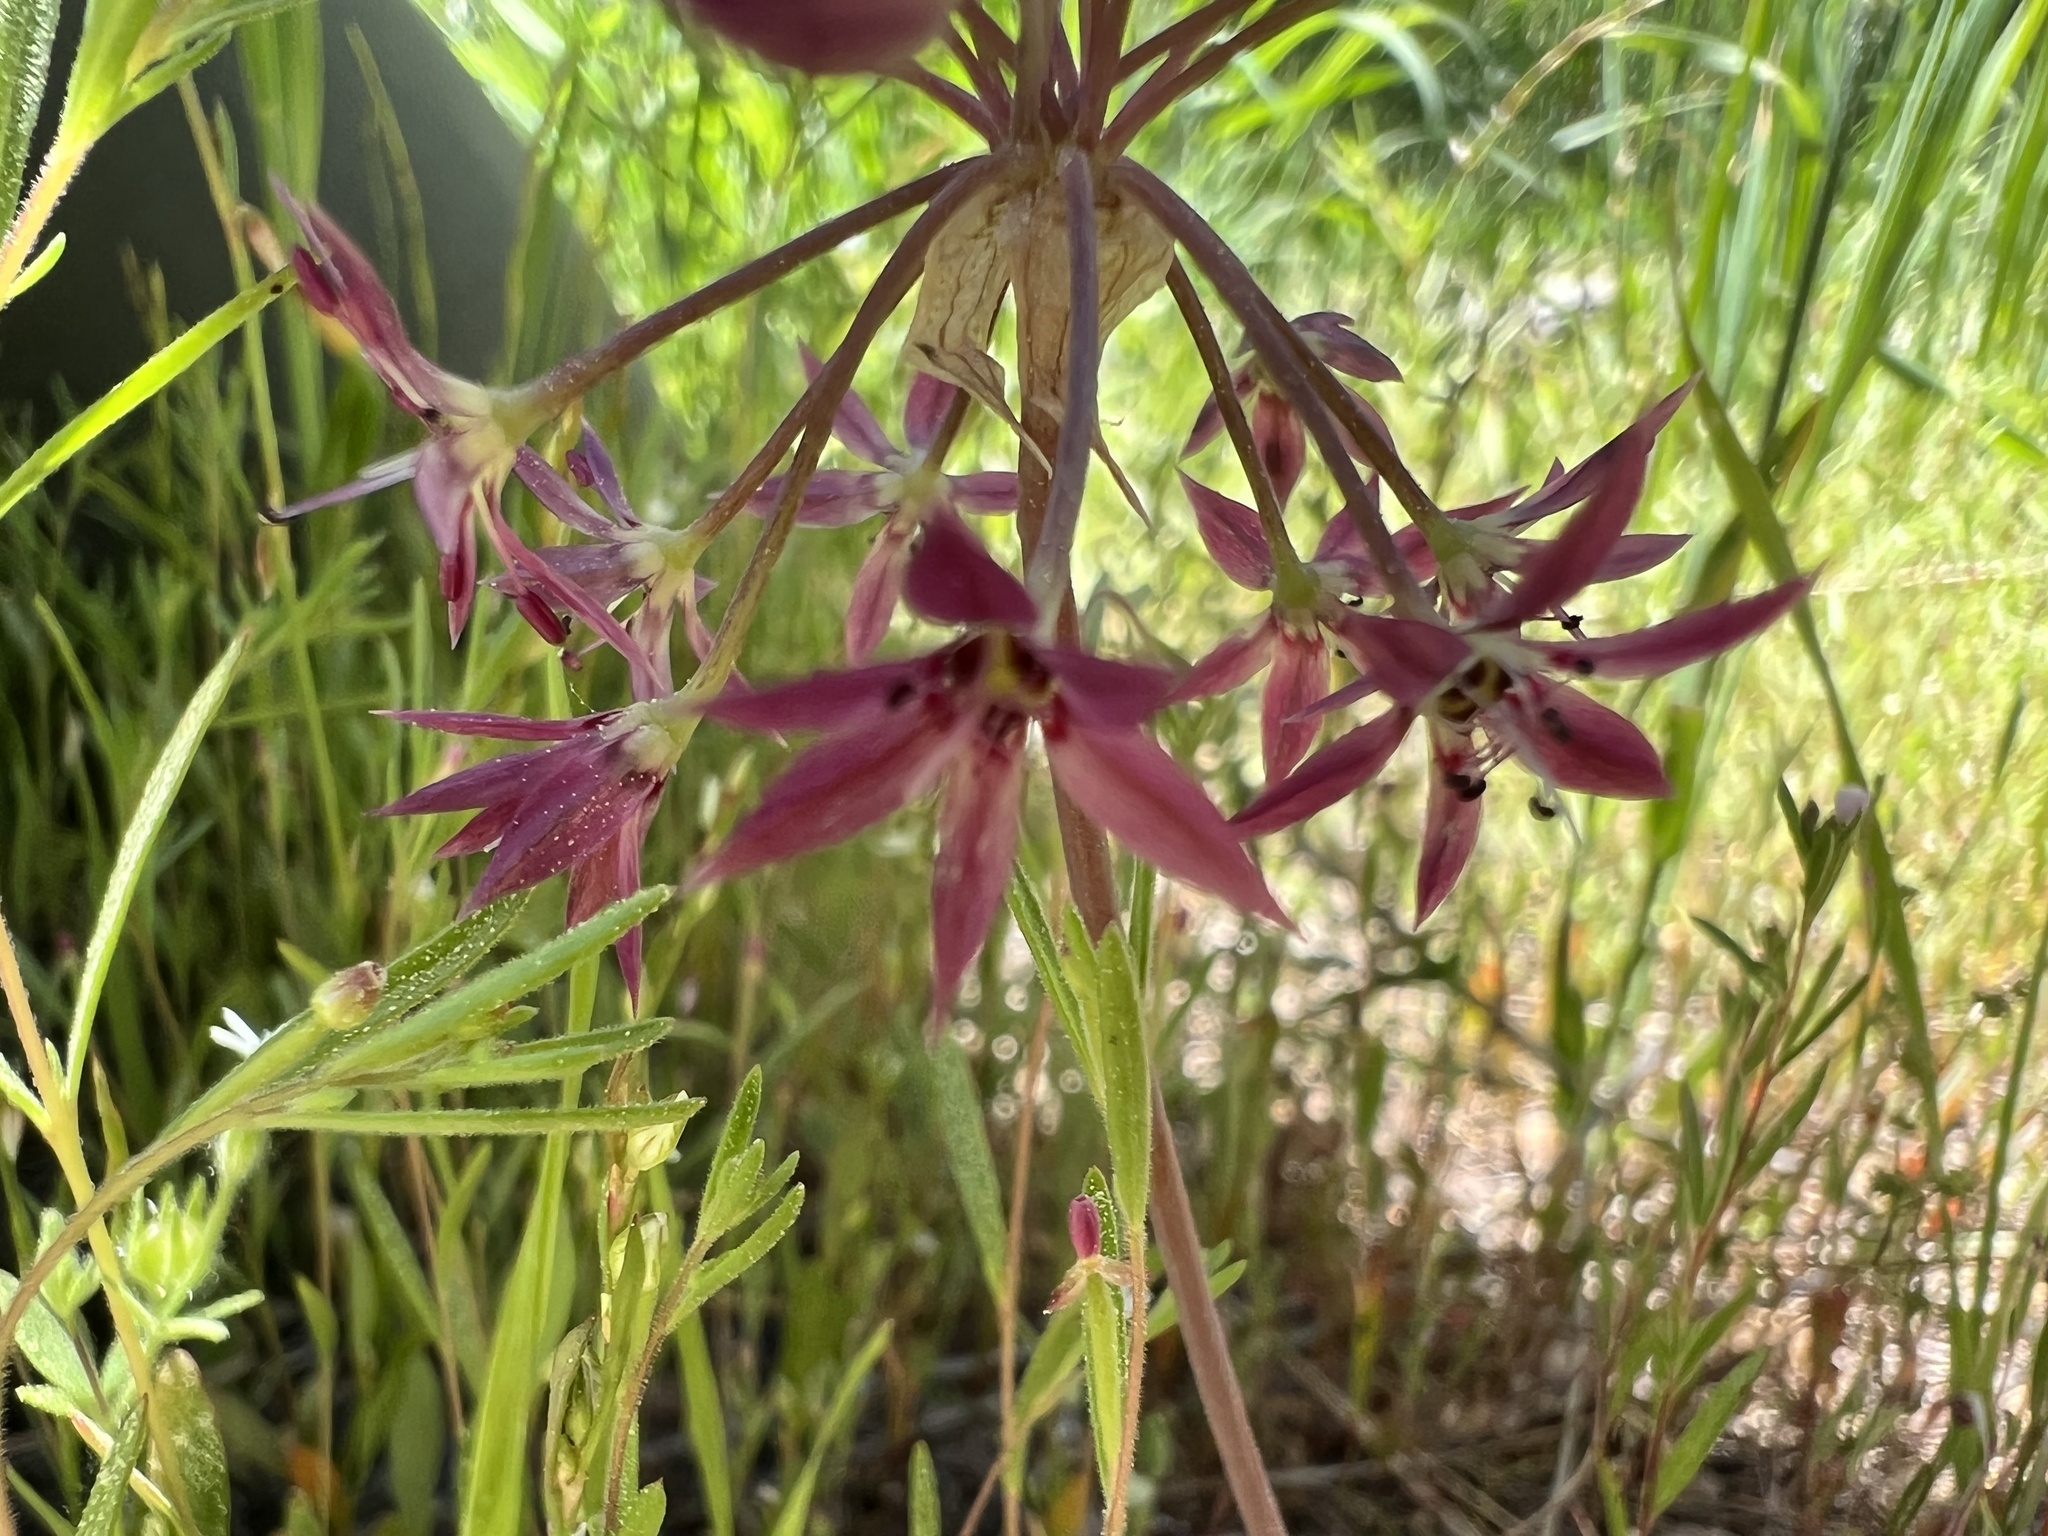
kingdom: Plantae
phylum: Tracheophyta
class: Liliopsida
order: Asparagales
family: Amaryllidaceae
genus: Allium
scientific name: Allium campanulatum
